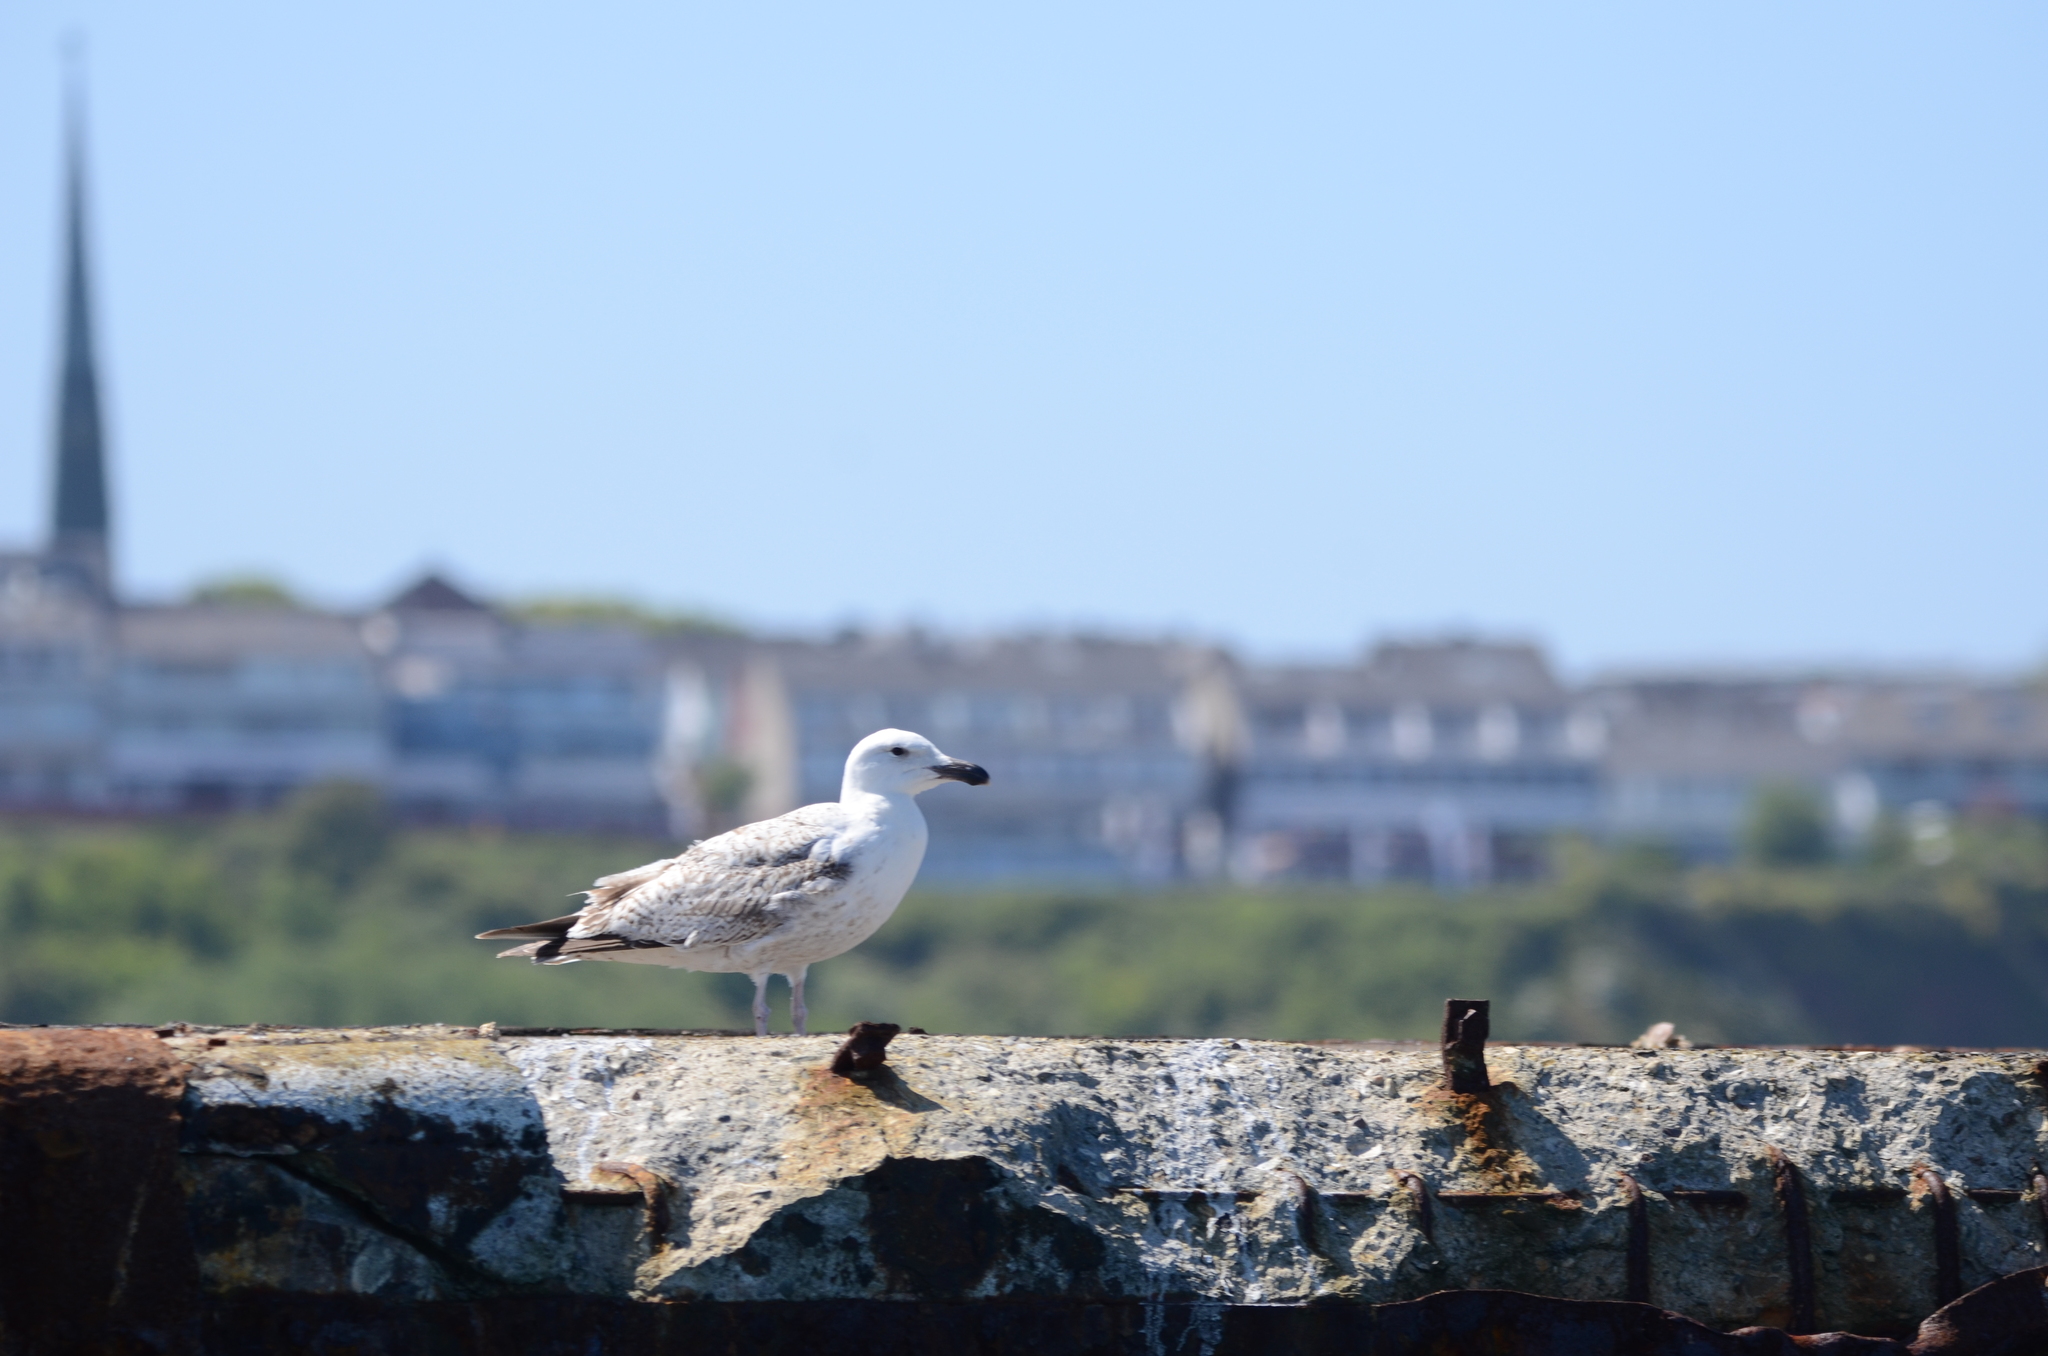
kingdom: Animalia
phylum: Chordata
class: Aves
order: Charadriiformes
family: Laridae
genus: Larus
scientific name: Larus marinus
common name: Great black-backed gull
